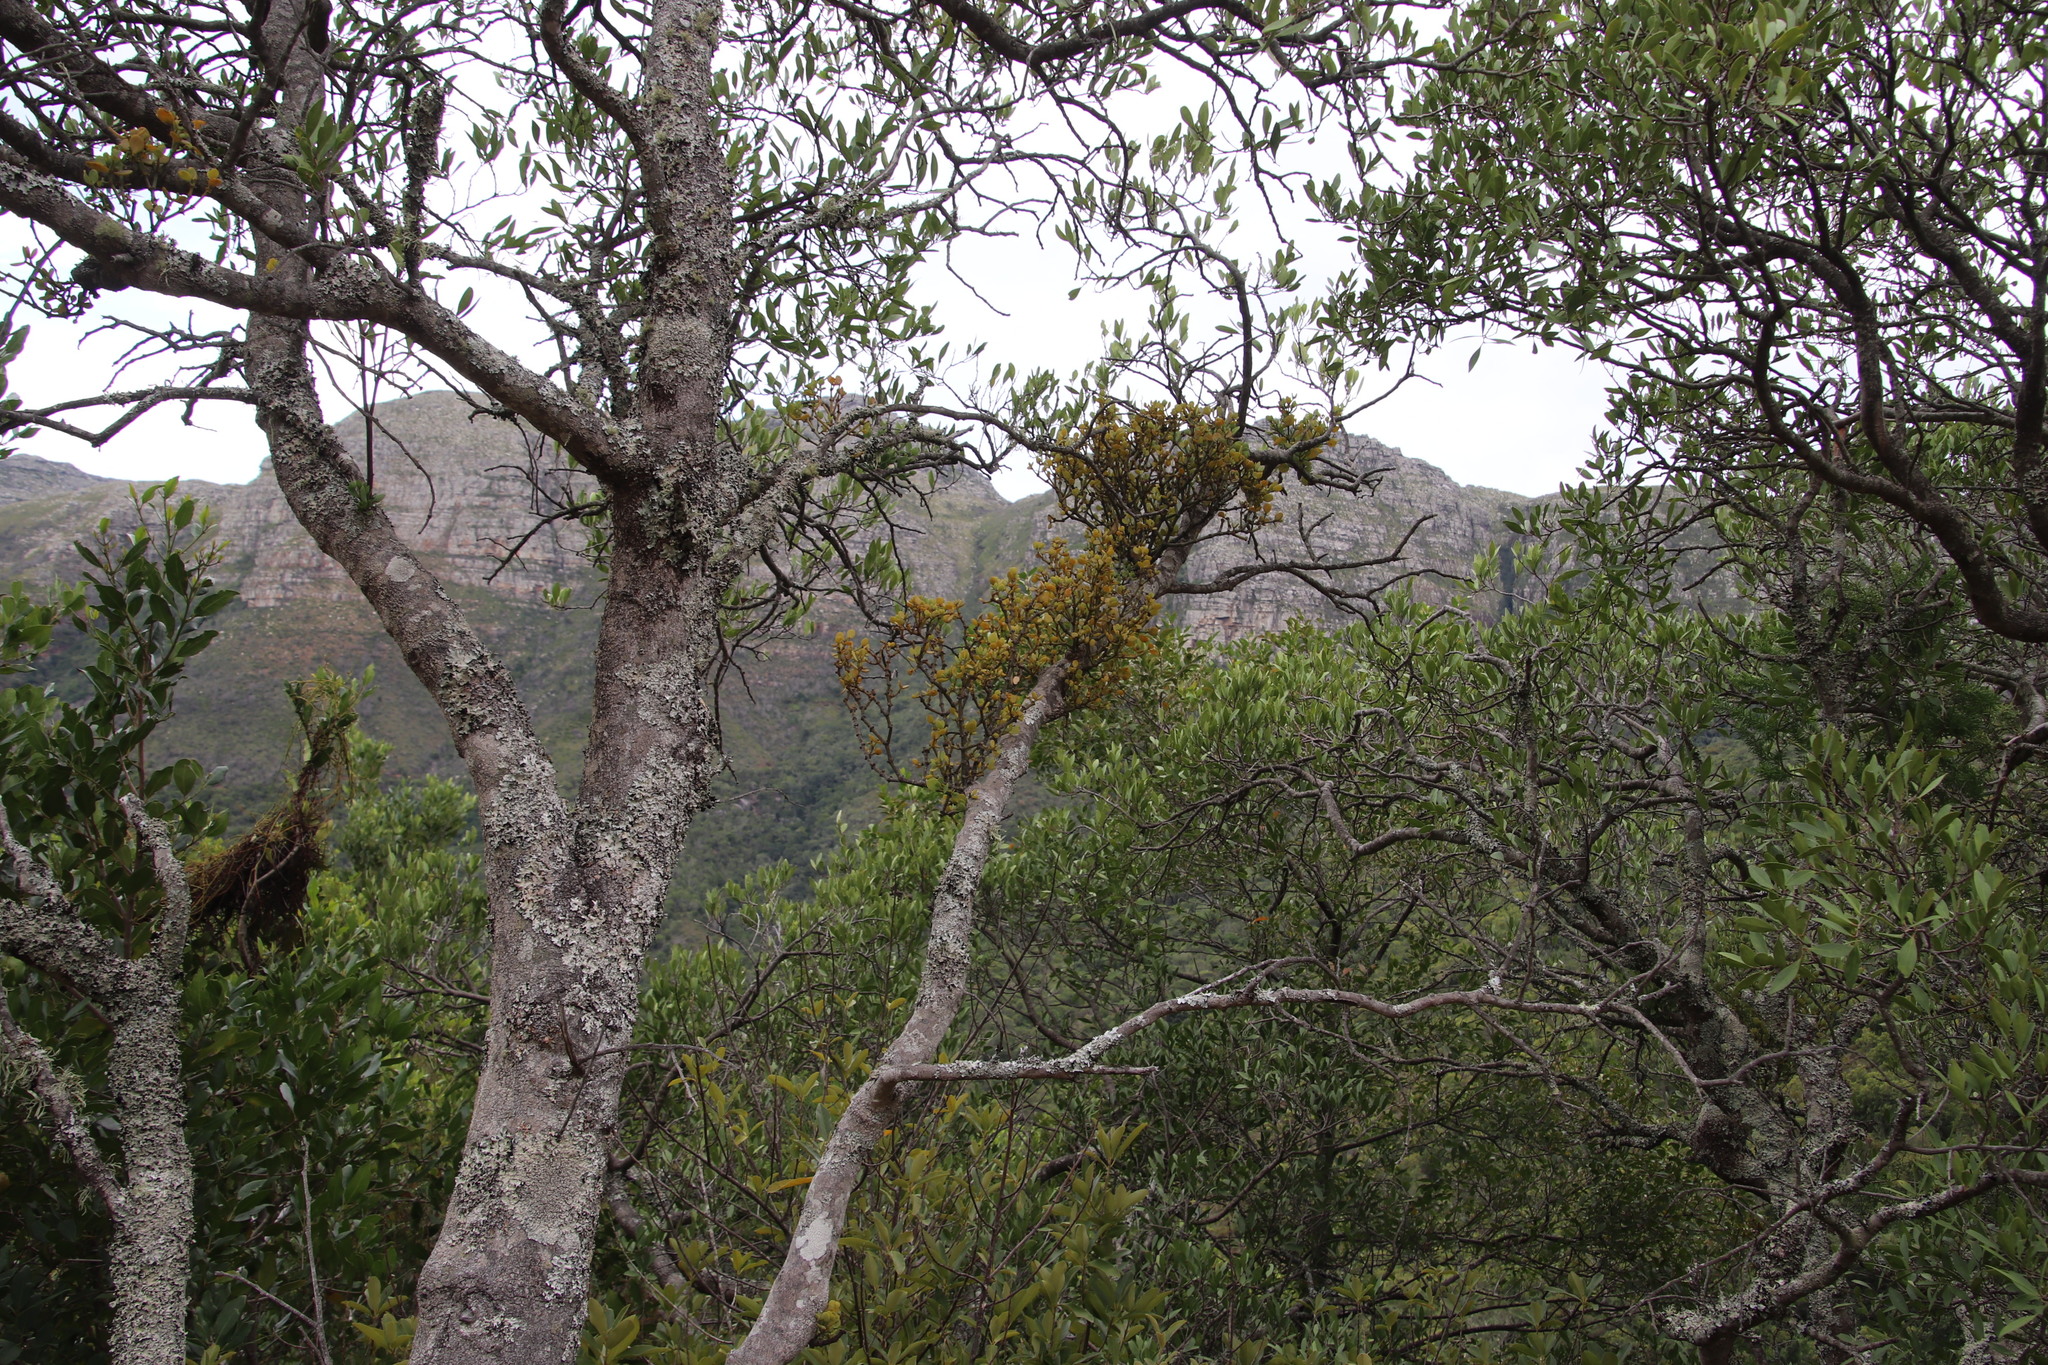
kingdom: Plantae
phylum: Tracheophyta
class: Magnoliopsida
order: Santalales
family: Viscaceae
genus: Viscum
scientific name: Viscum rotundifolium
